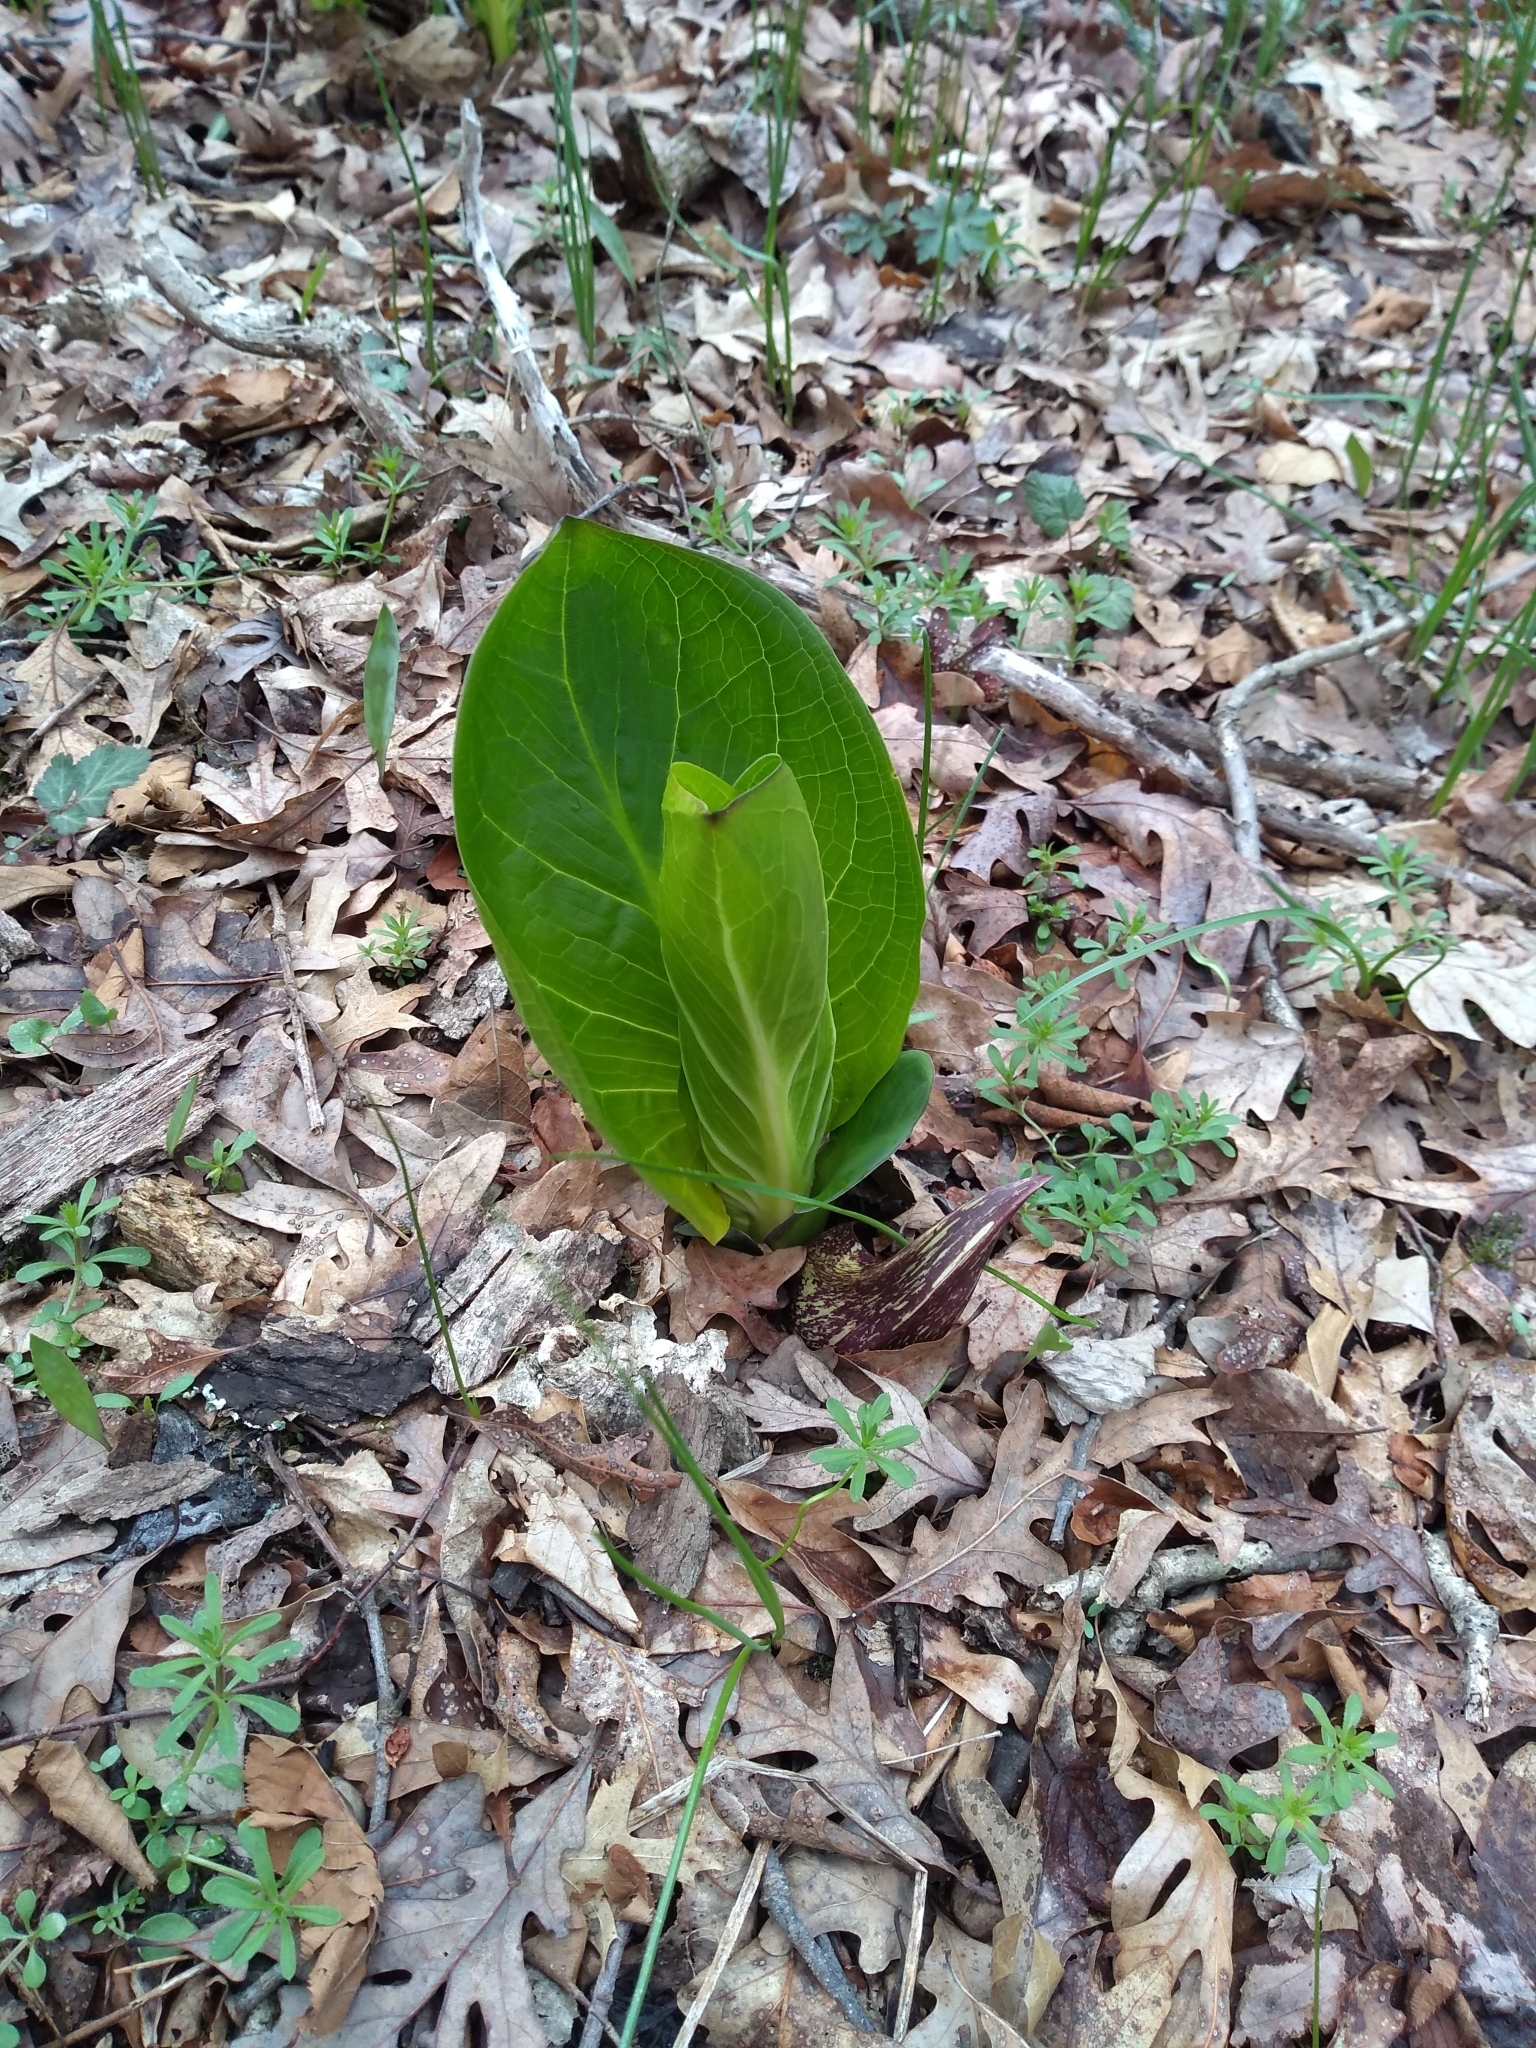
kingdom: Plantae
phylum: Tracheophyta
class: Liliopsida
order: Alismatales
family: Araceae
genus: Symplocarpus
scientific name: Symplocarpus foetidus
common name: Eastern skunk cabbage
